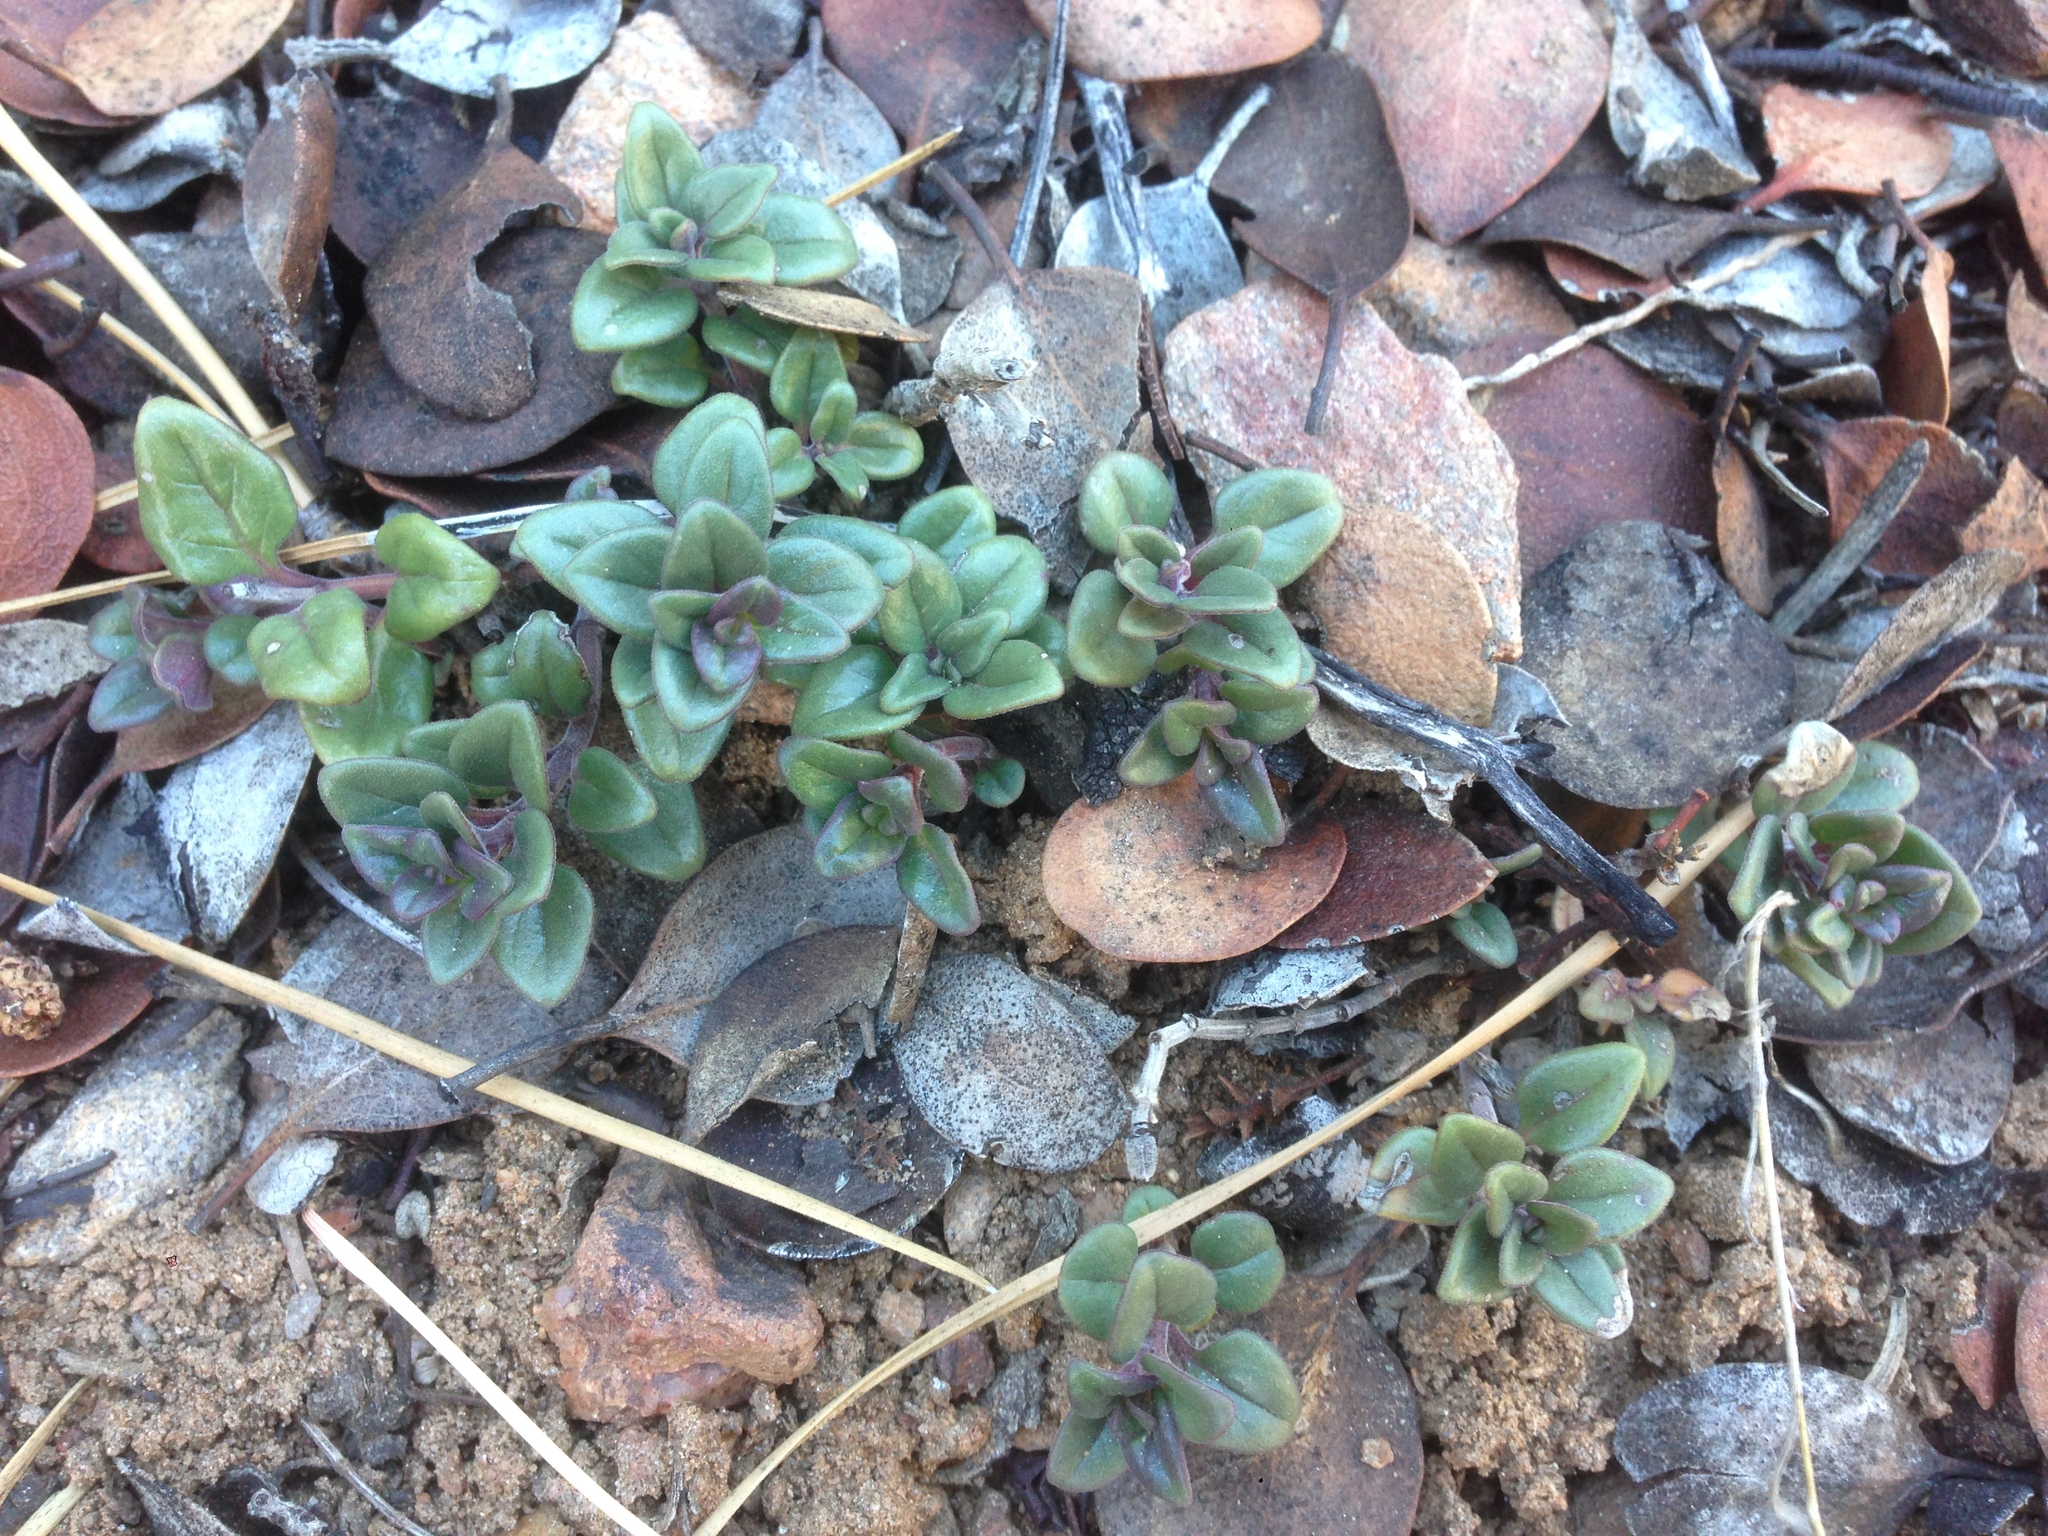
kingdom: Plantae
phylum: Tracheophyta
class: Magnoliopsida
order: Lamiales
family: Lamiaceae
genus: Monardella
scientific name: Monardella macrantha
